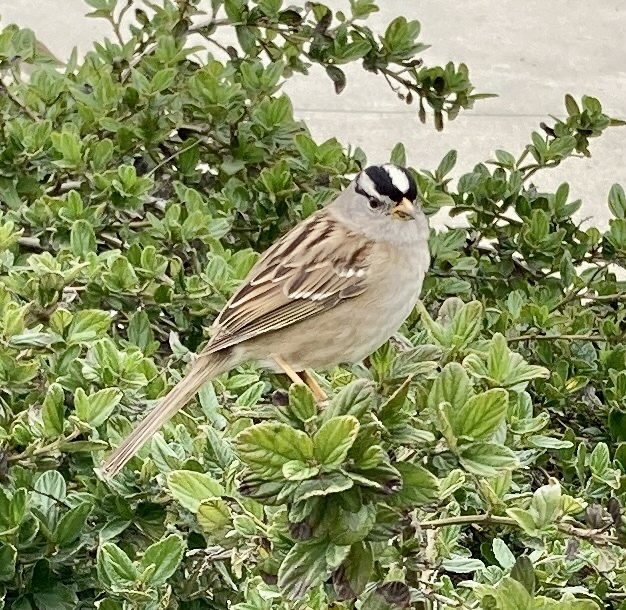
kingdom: Animalia
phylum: Chordata
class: Aves
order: Passeriformes
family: Passerellidae
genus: Zonotrichia
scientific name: Zonotrichia leucophrys
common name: White-crowned sparrow
